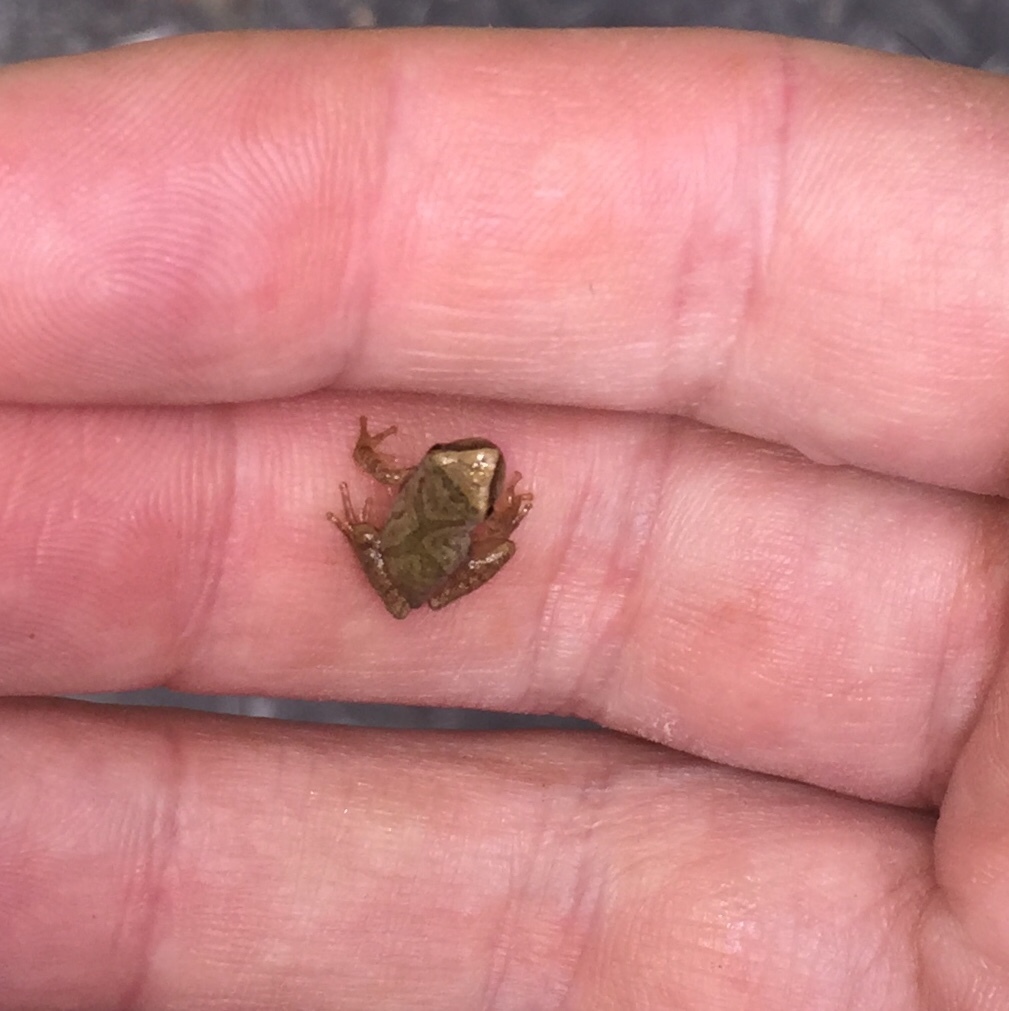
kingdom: Animalia
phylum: Chordata
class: Amphibia
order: Anura
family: Hylidae
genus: Pseudacris
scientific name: Pseudacris crucifer
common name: Spring peeper
